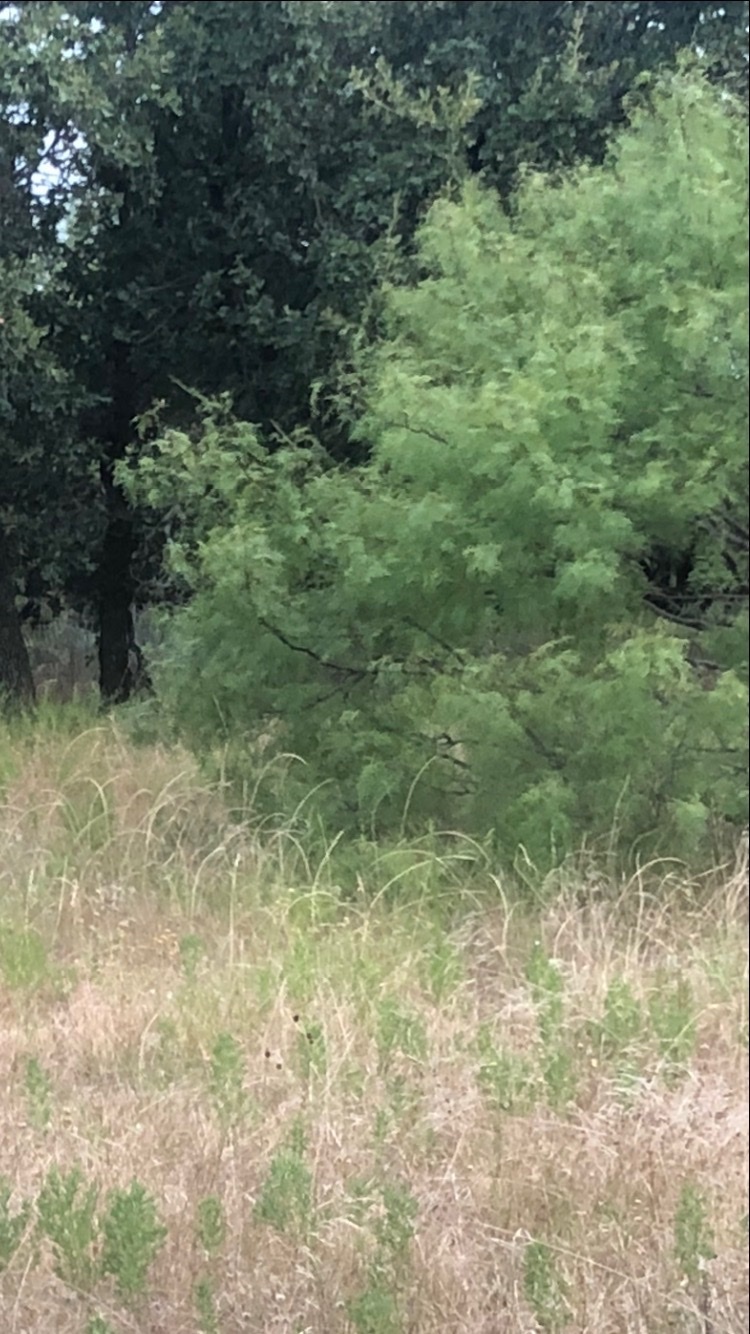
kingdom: Plantae
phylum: Tracheophyta
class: Magnoliopsida
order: Fabales
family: Fabaceae
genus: Prosopis
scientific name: Prosopis glandulosa
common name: Honey mesquite
